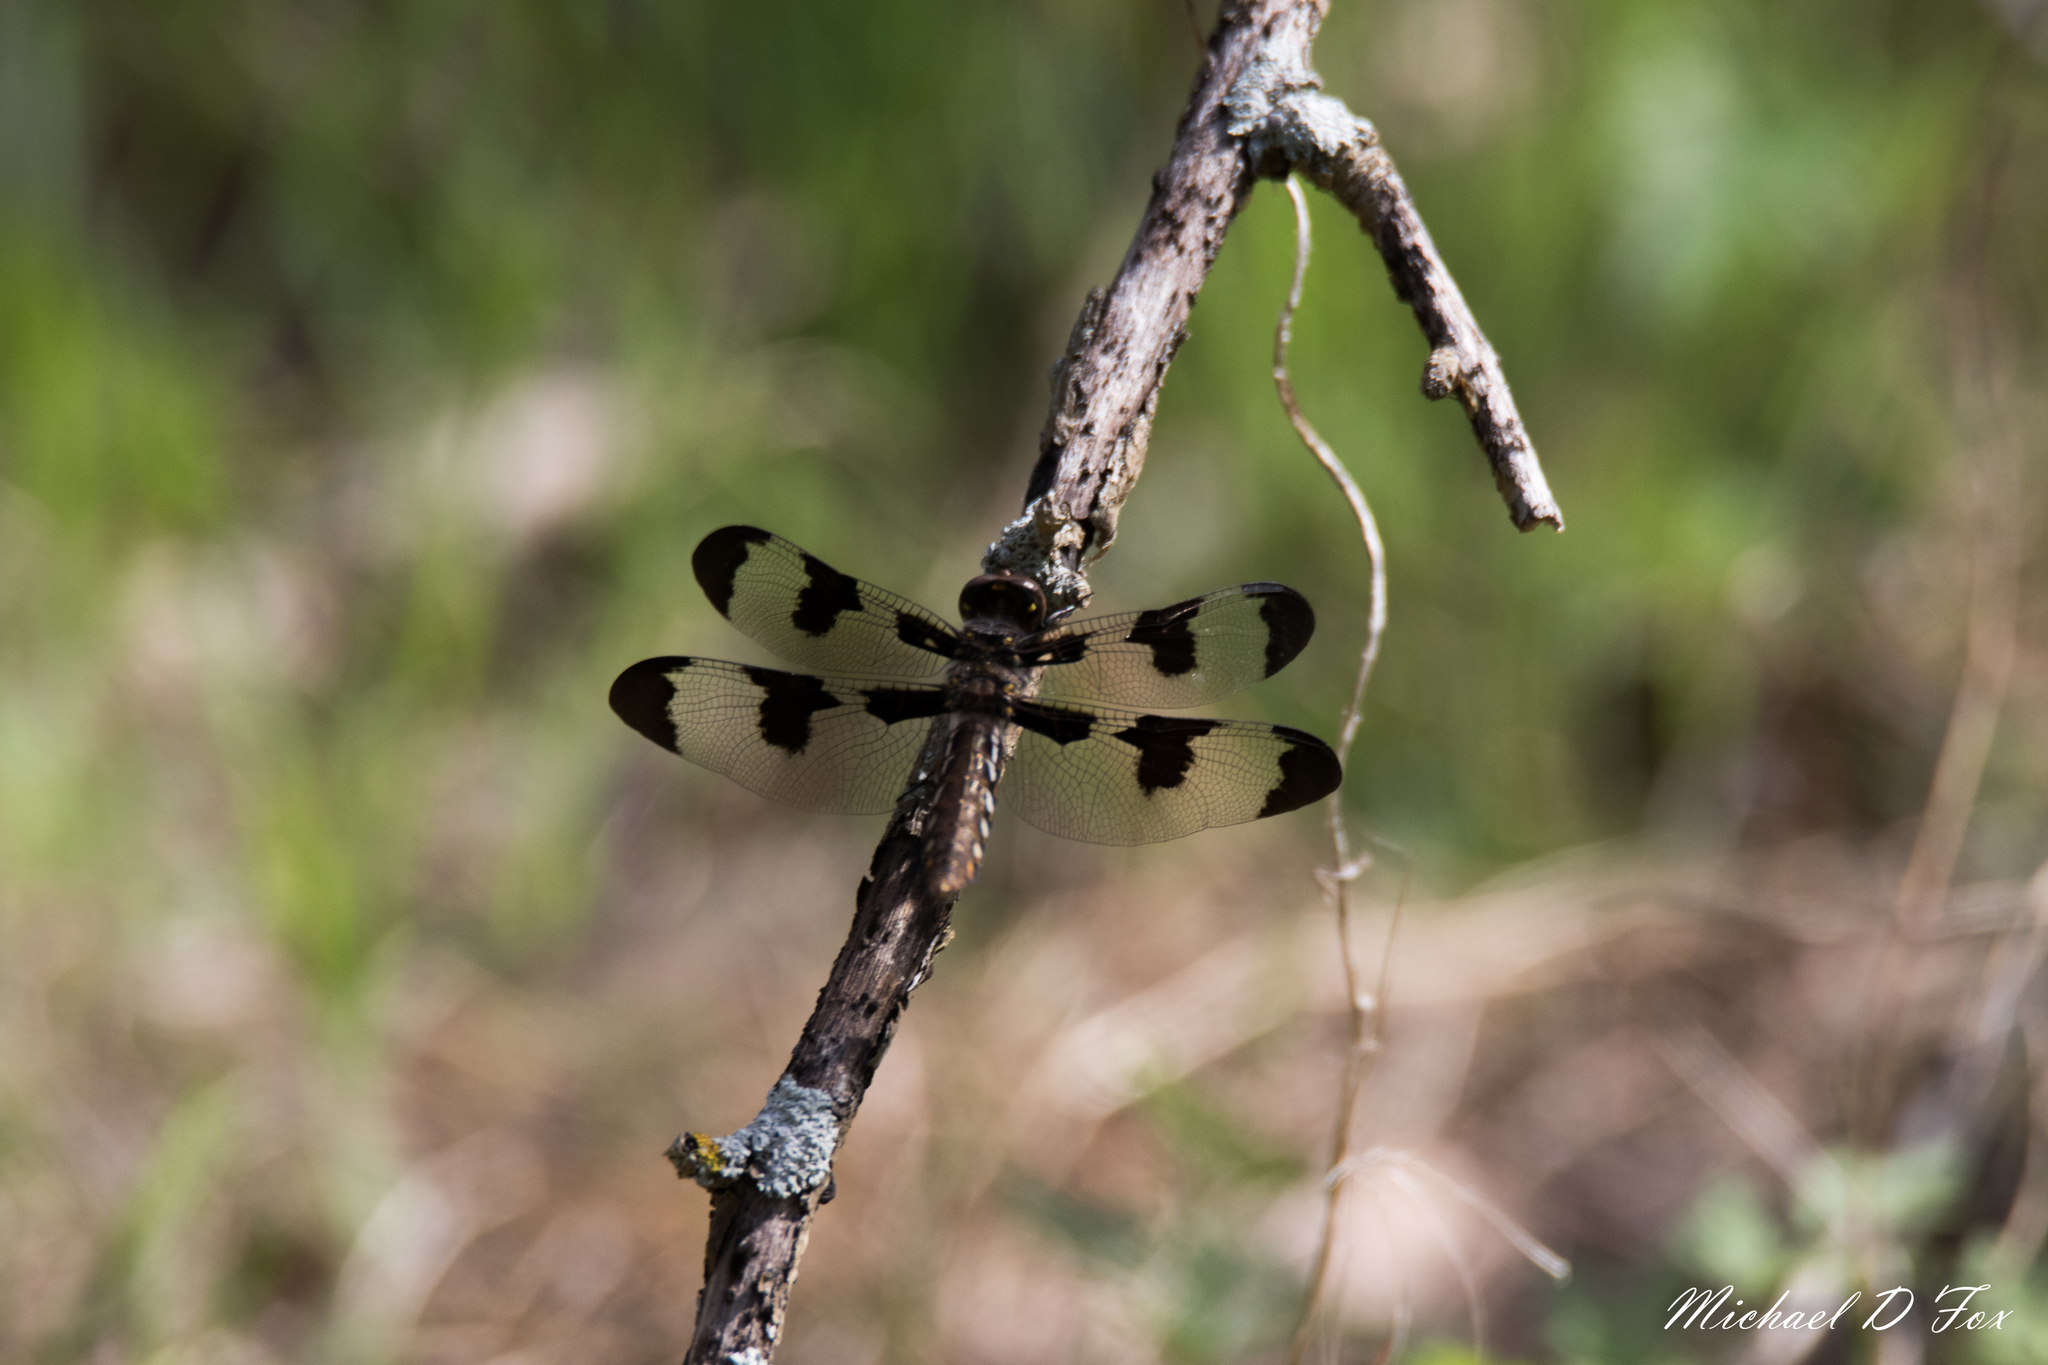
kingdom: Animalia
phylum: Arthropoda
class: Insecta
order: Odonata
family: Libellulidae
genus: Plathemis
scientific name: Plathemis lydia
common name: Common whitetail
